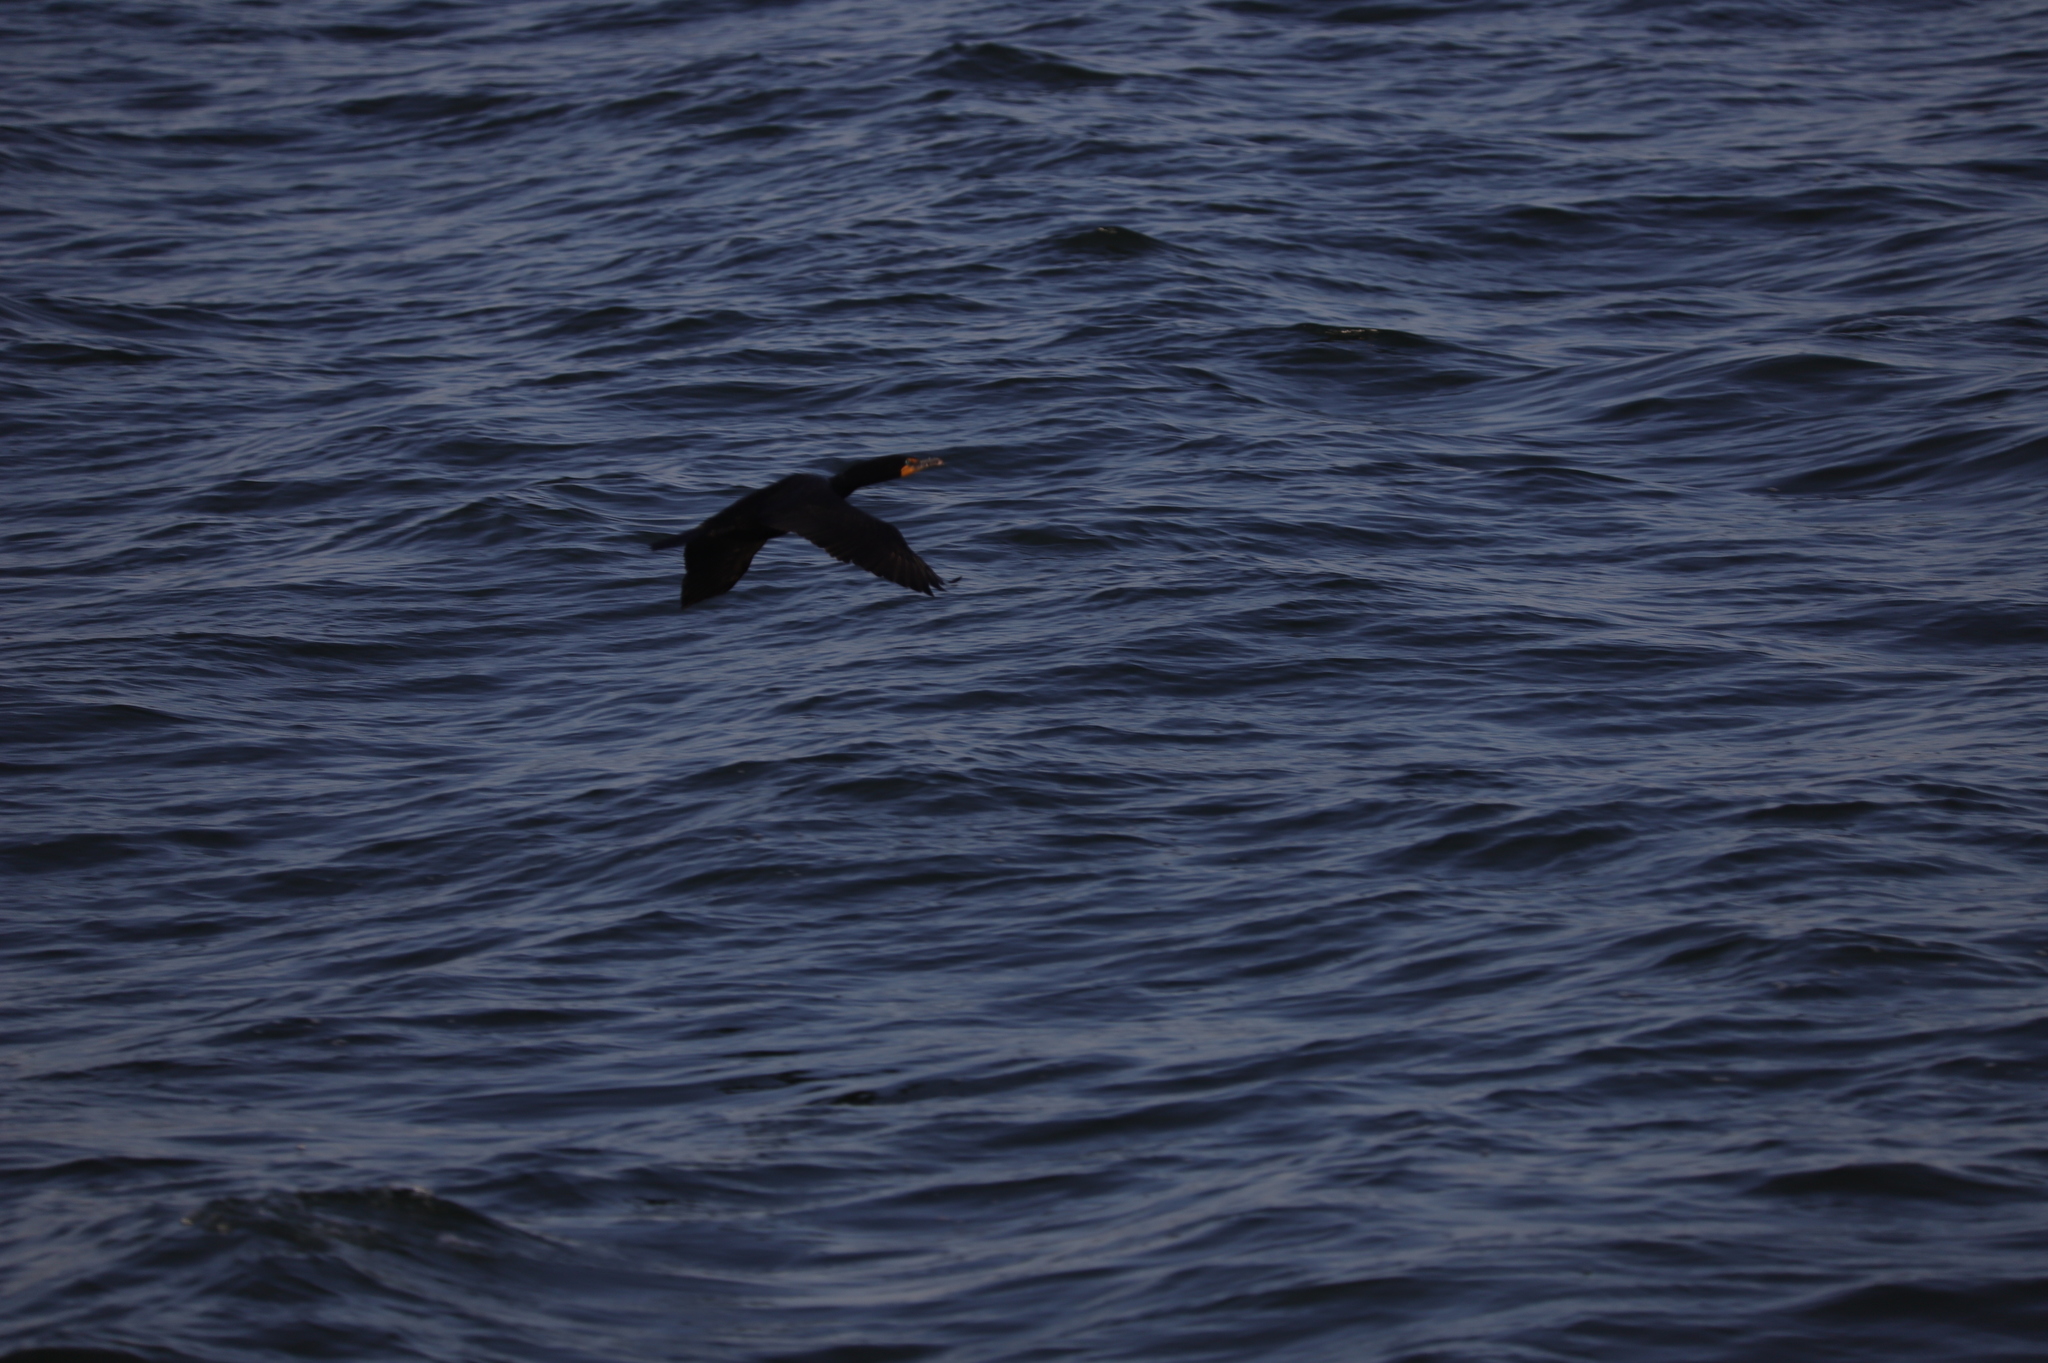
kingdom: Animalia
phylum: Chordata
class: Aves
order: Suliformes
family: Phalacrocoracidae
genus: Phalacrocorax
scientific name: Phalacrocorax auritus
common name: Double-crested cormorant
